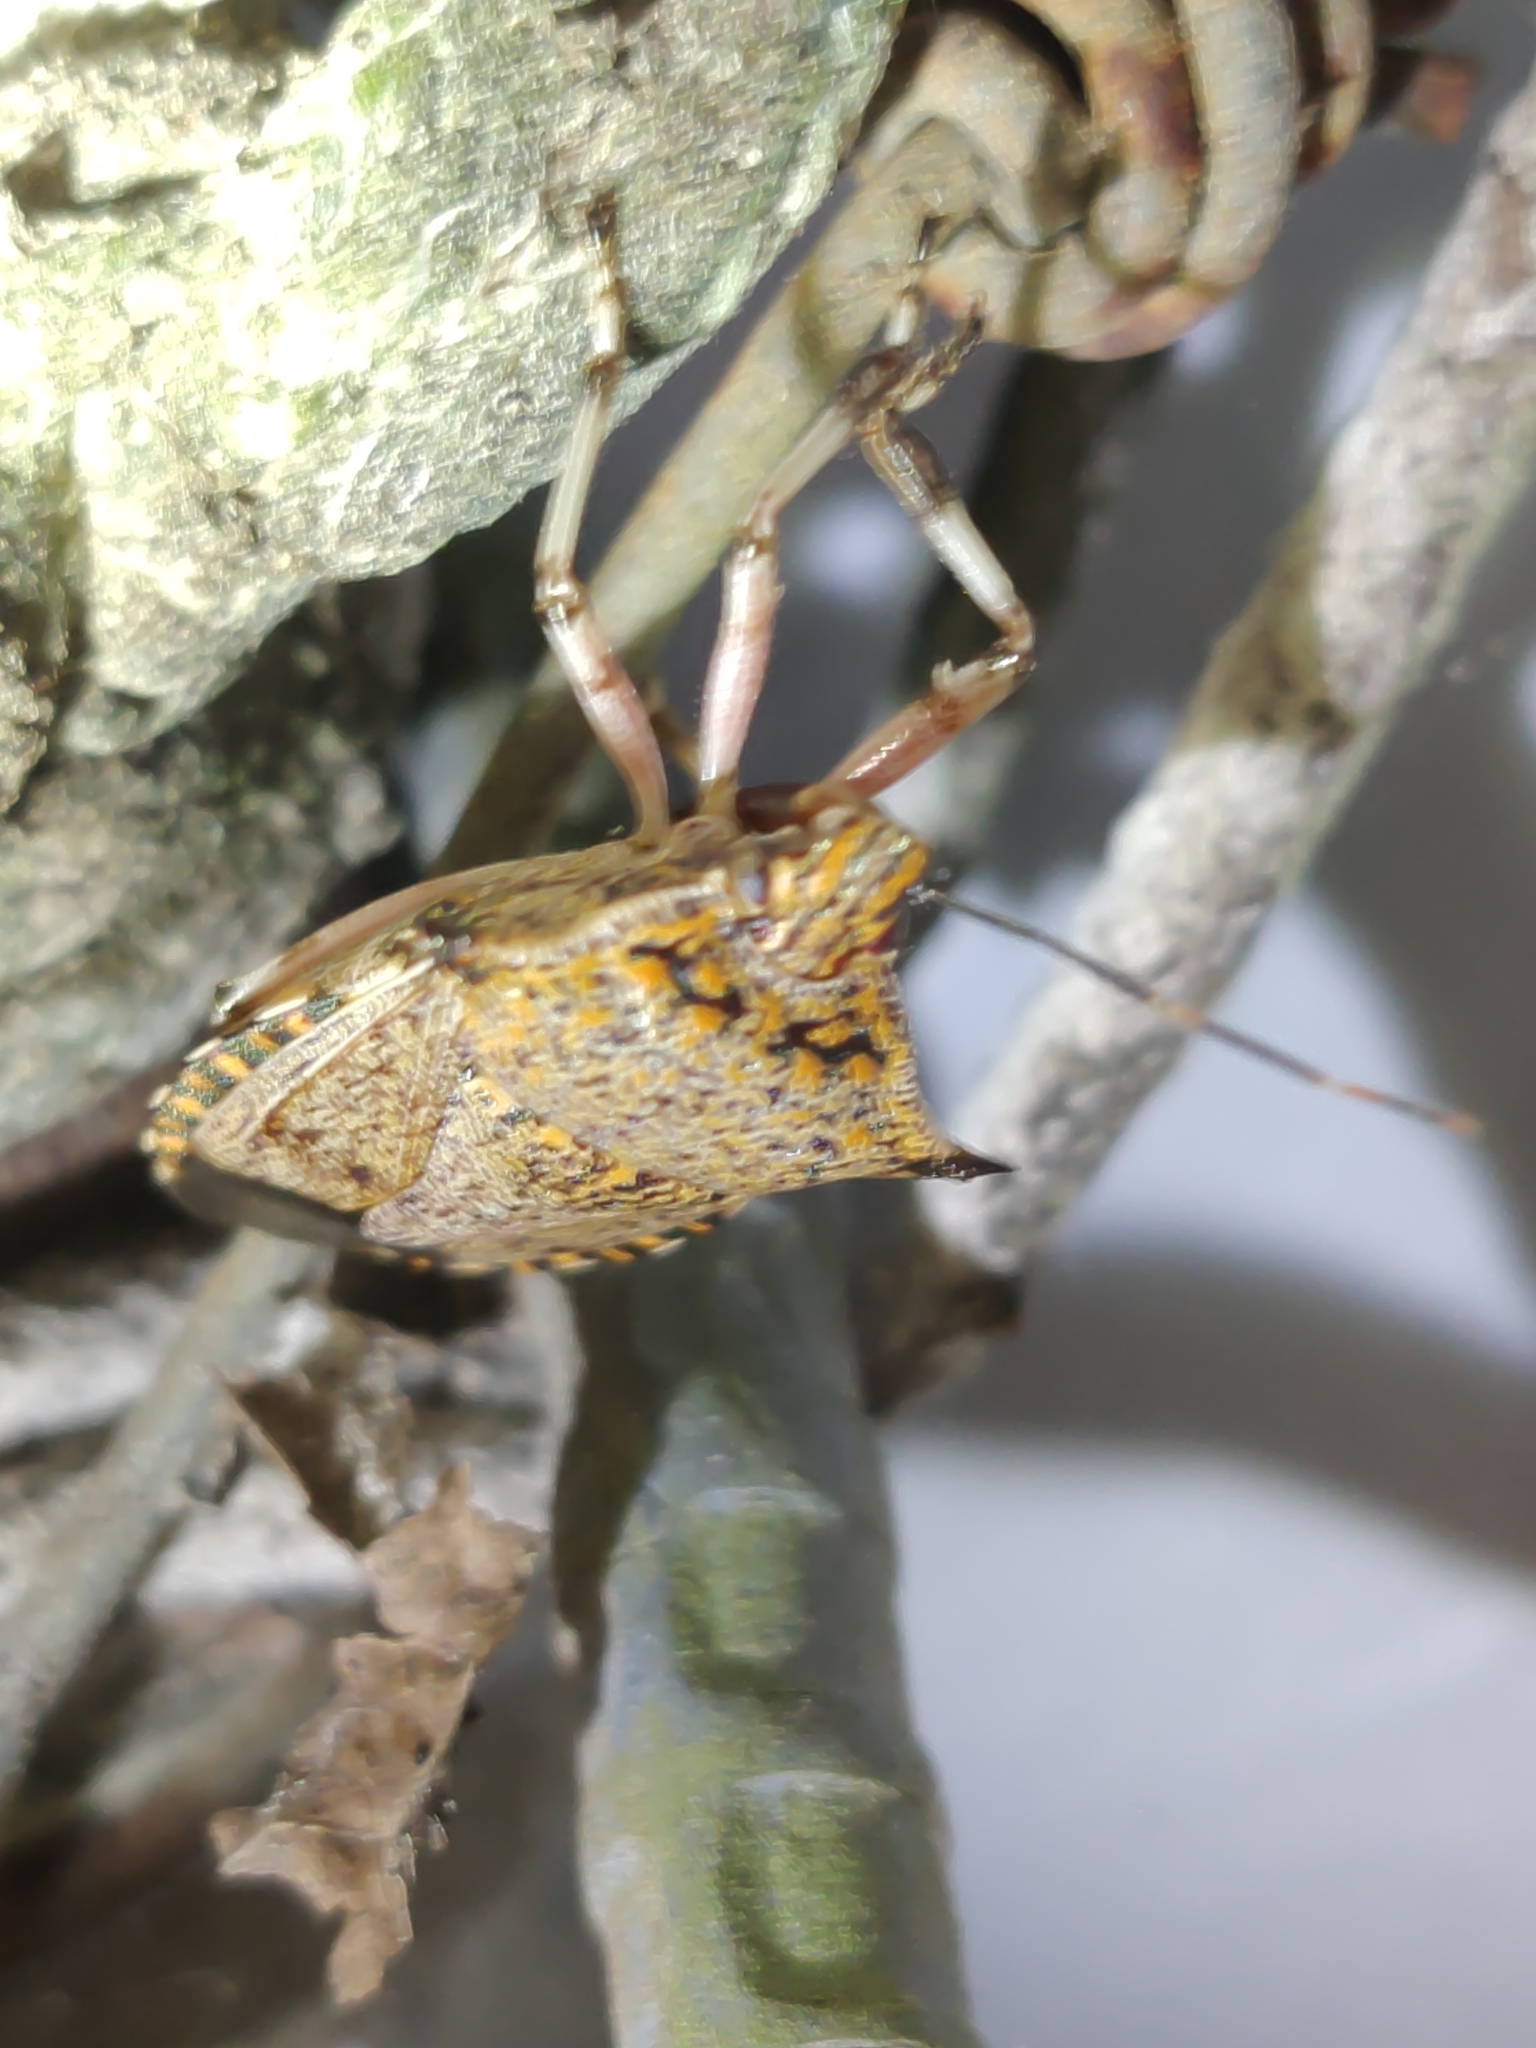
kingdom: Animalia
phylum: Arthropoda
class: Insecta
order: Hemiptera
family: Pentatomidae
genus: Alcaeorrhynchus
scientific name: Alcaeorrhynchus grandis
